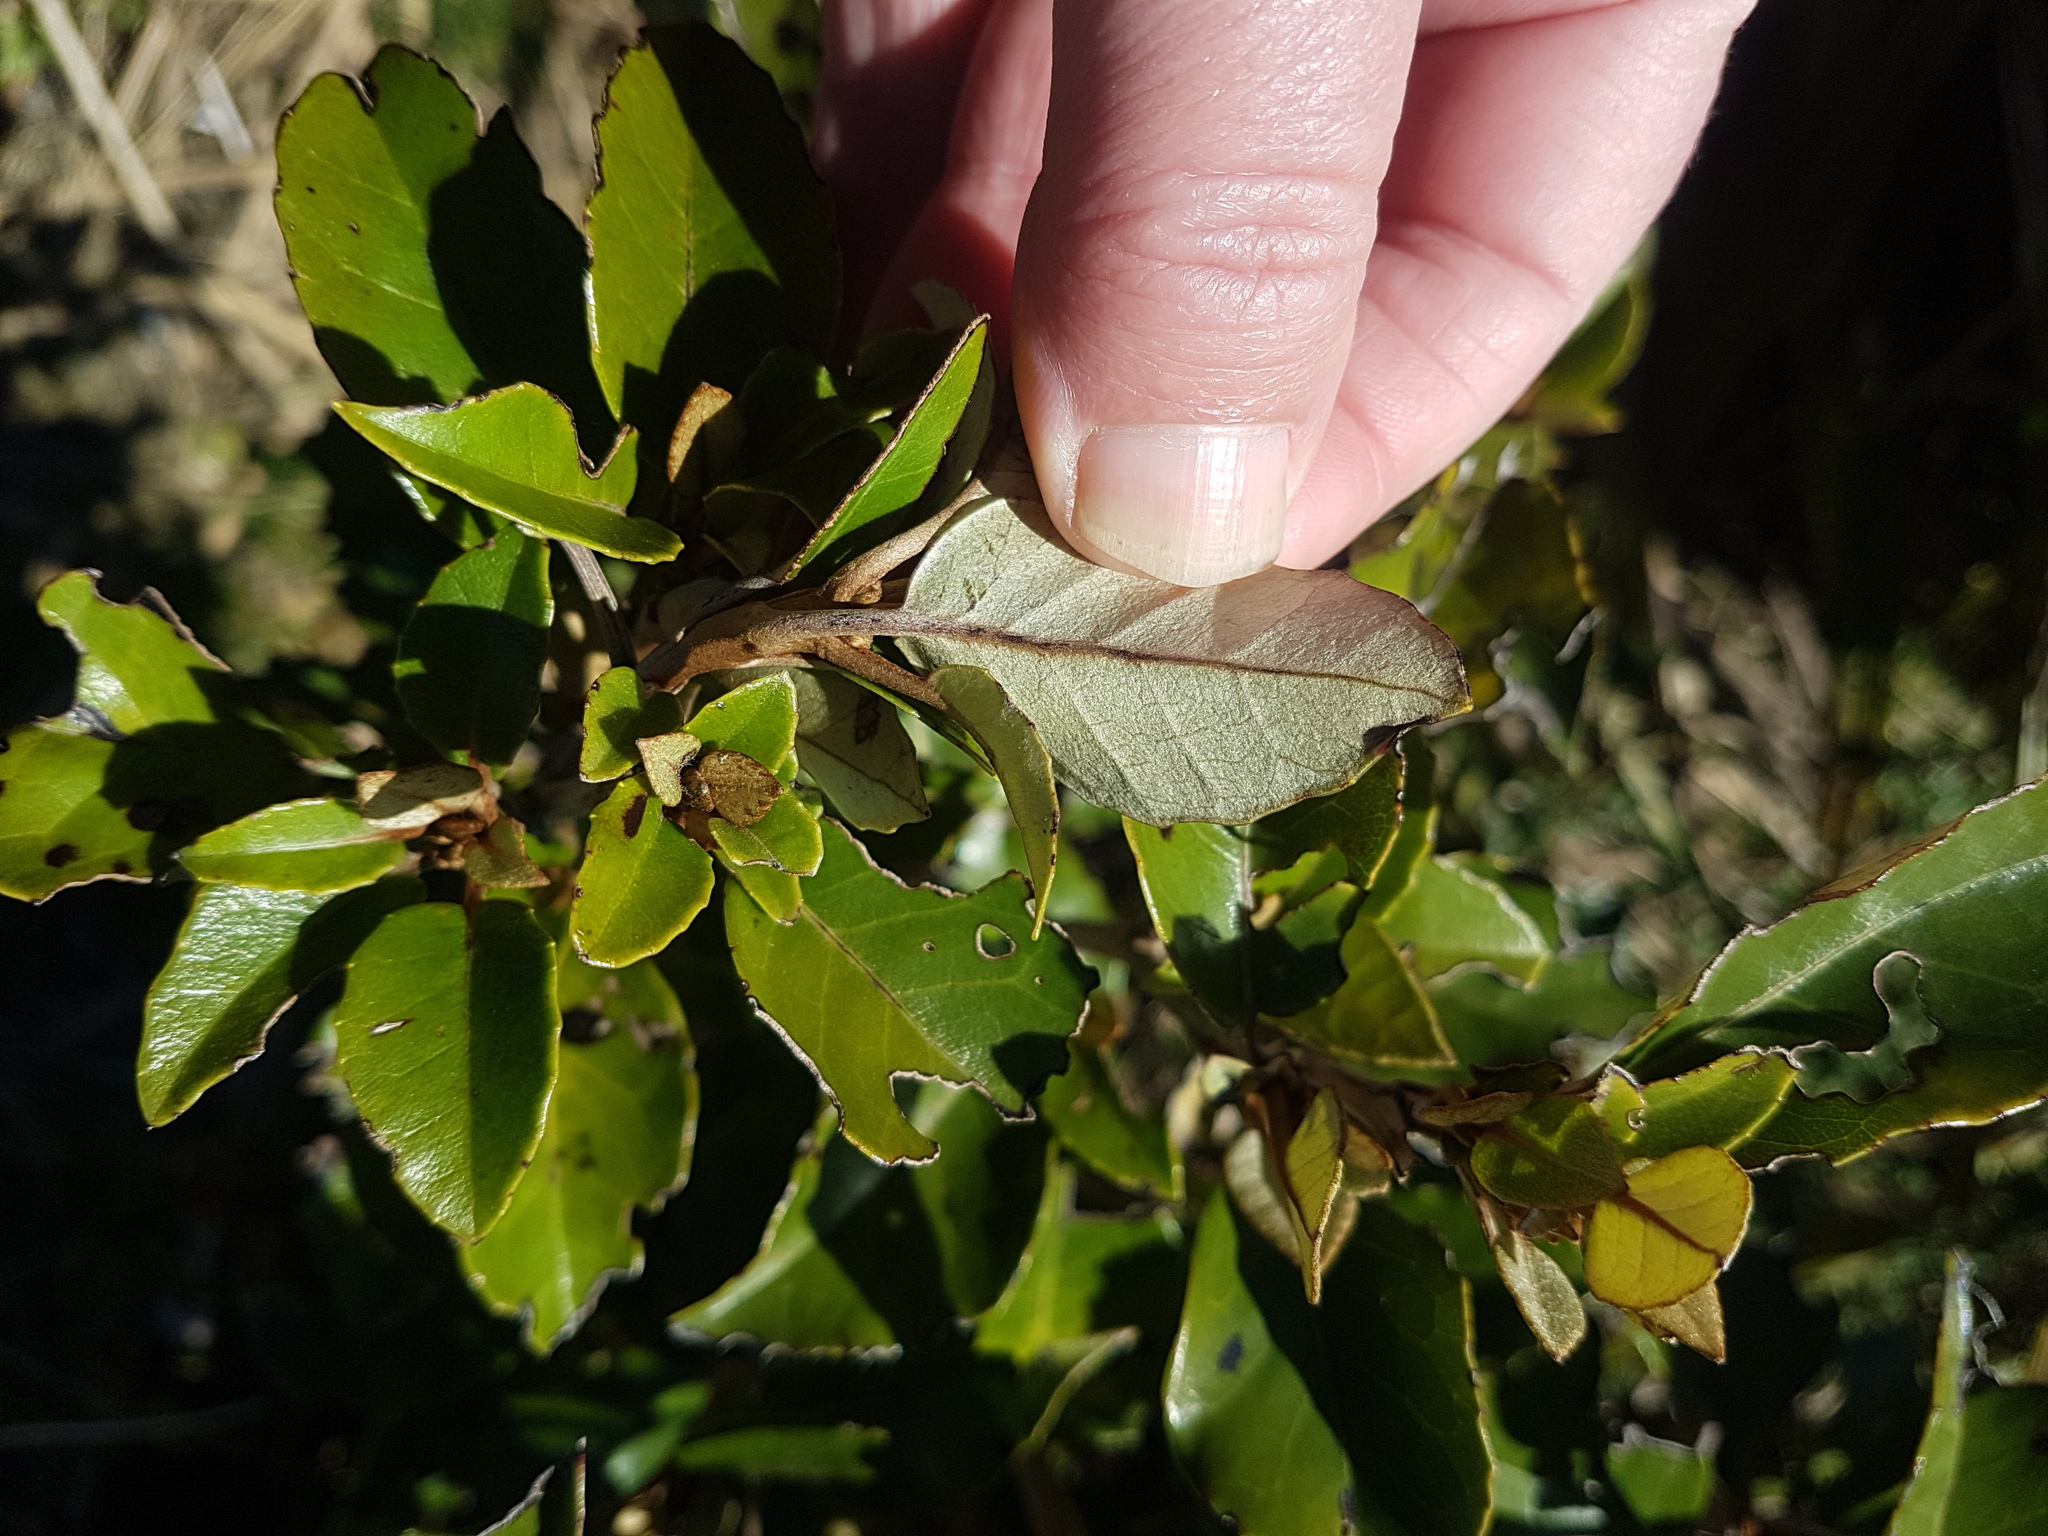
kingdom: Plantae
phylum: Tracheophyta
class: Magnoliopsida
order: Asterales
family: Asteraceae
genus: Olearia
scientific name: Olearia arborescens
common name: Glossy tree daisy
